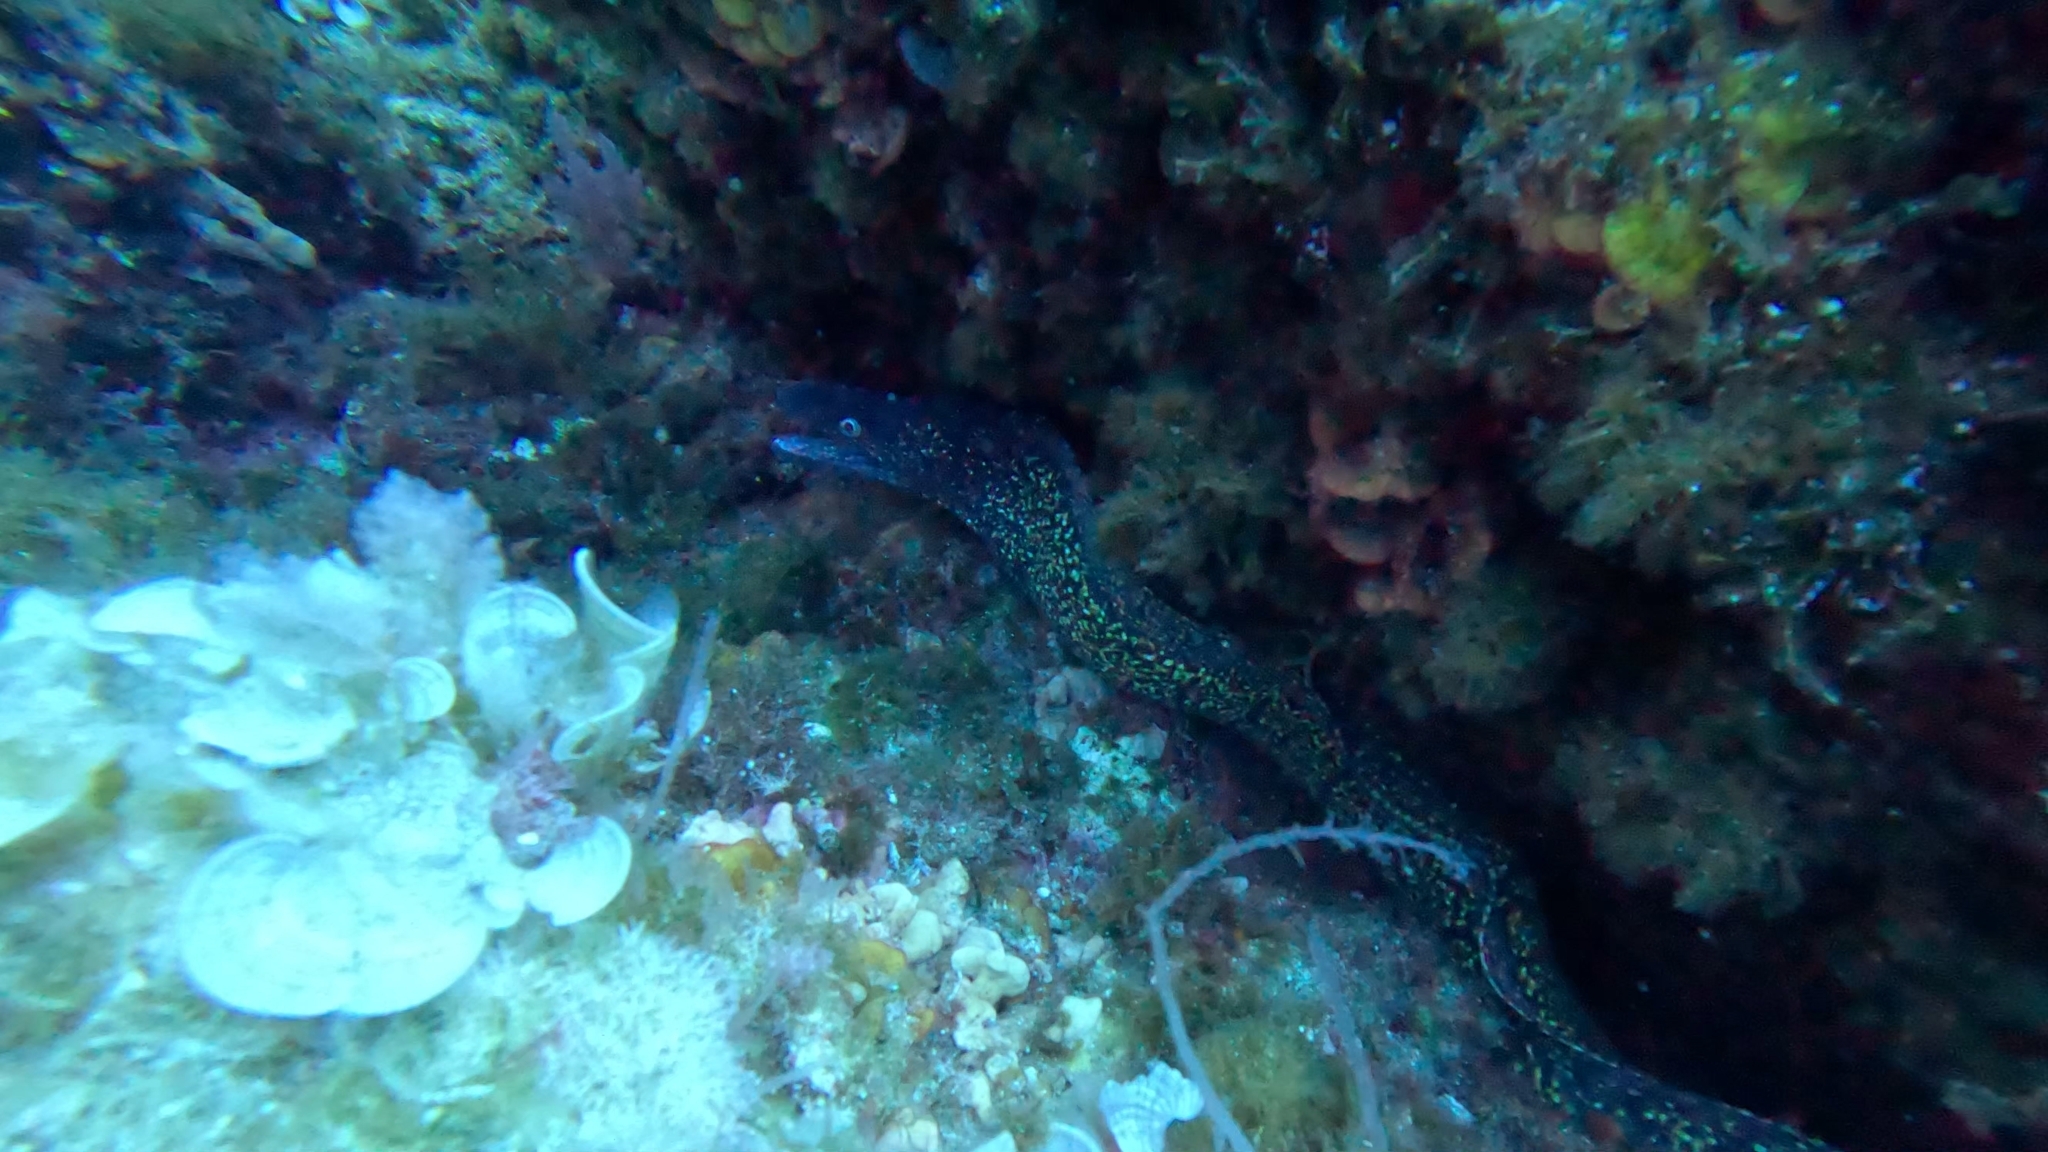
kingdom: Animalia
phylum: Chordata
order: Anguilliformes
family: Muraenidae
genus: Muraena
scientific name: Muraena helena
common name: Mediterranean moray
